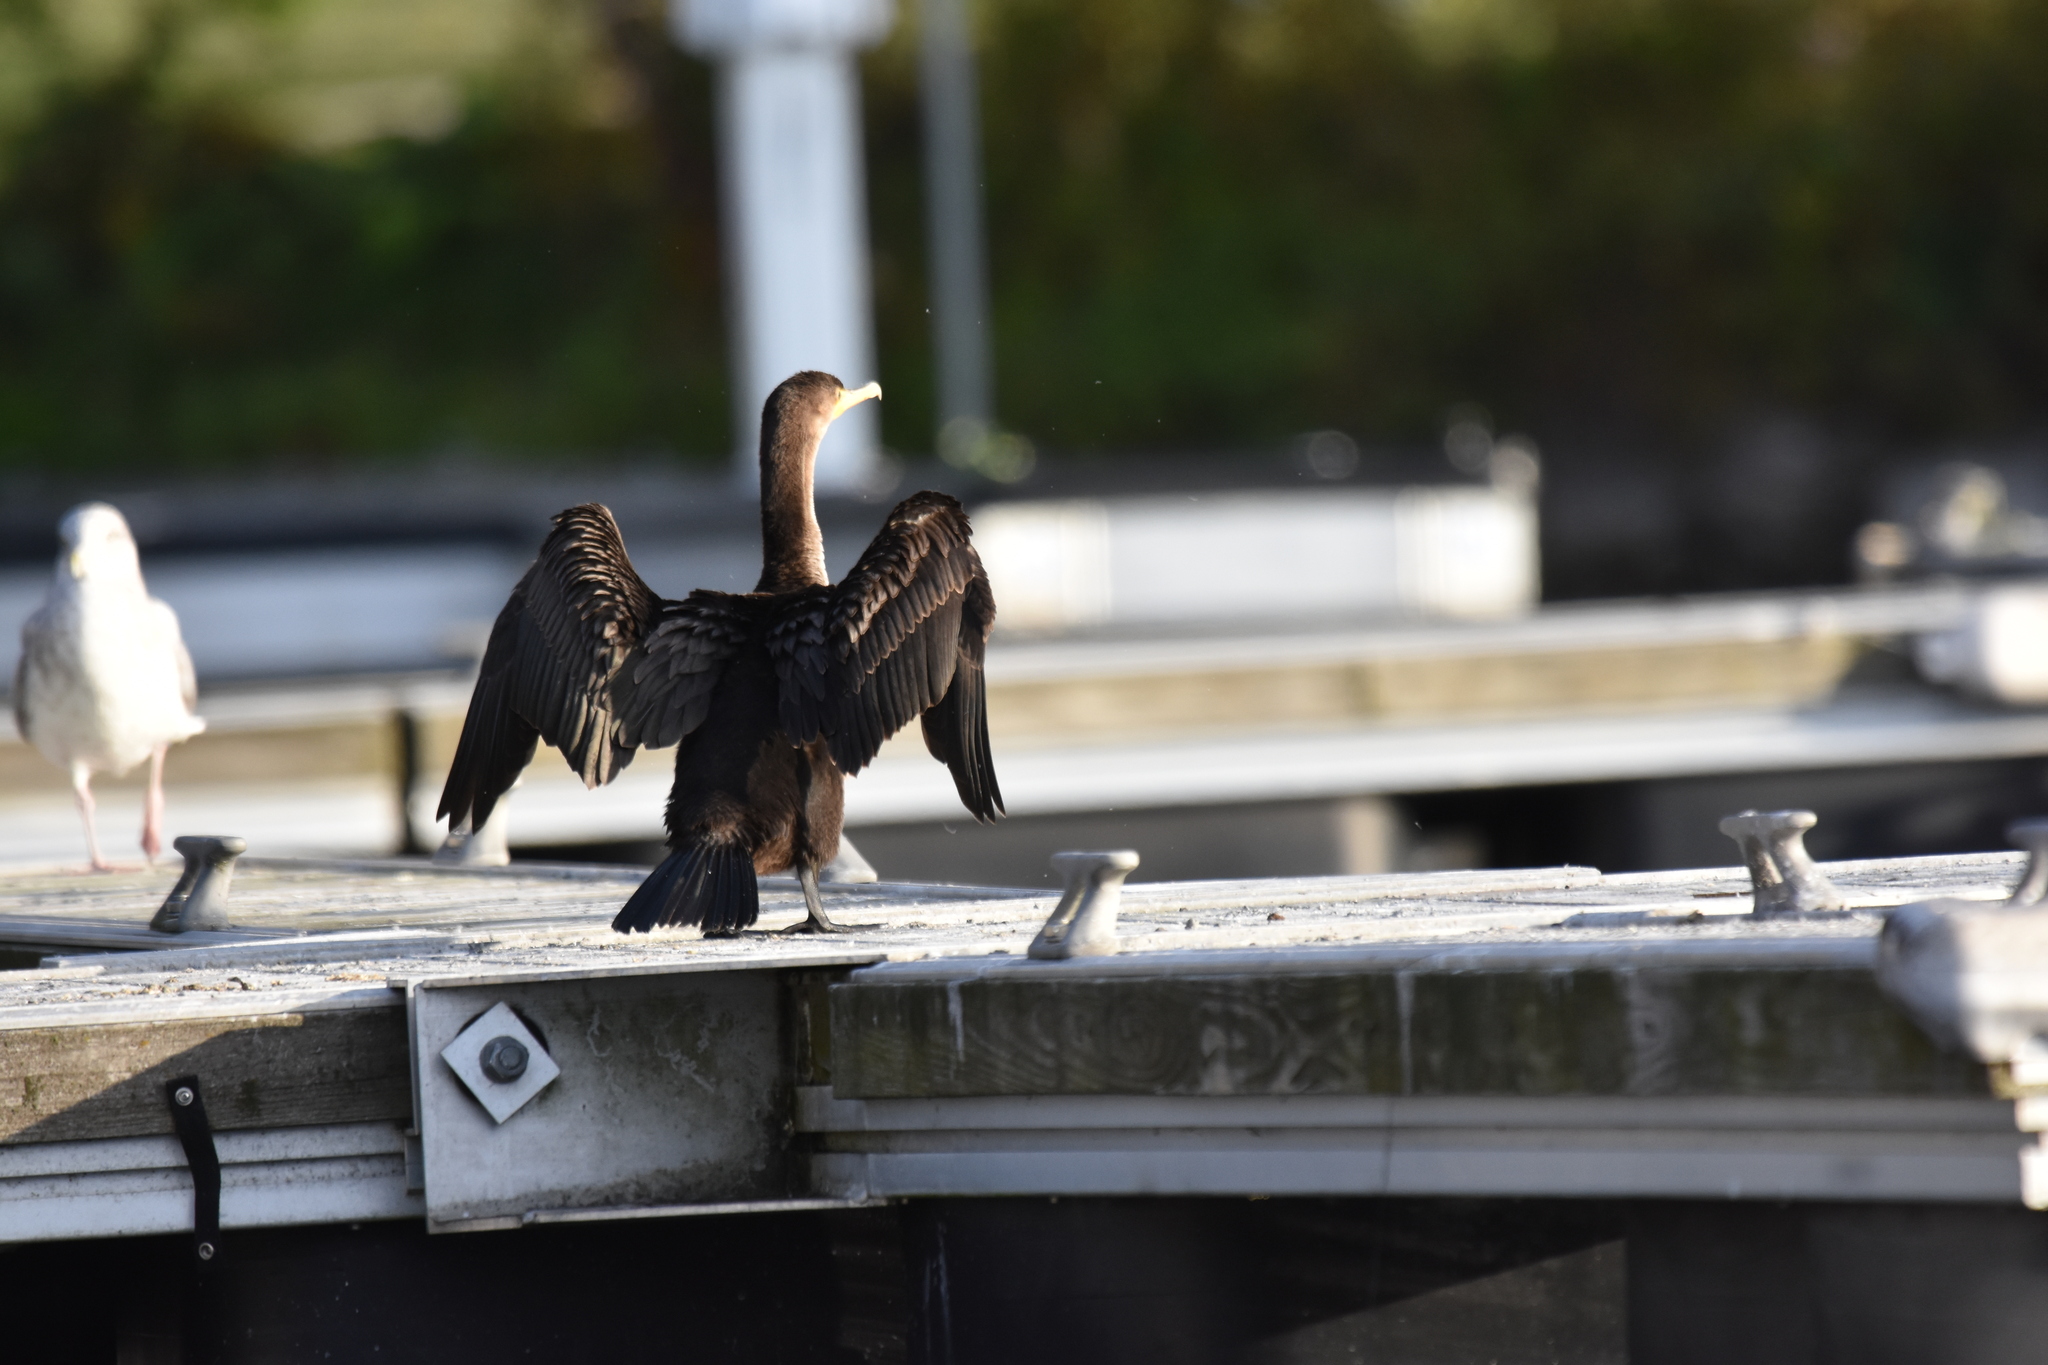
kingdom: Animalia
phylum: Chordata
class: Aves
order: Suliformes
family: Phalacrocoracidae
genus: Phalacrocorax
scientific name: Phalacrocorax auritus
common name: Double-crested cormorant
